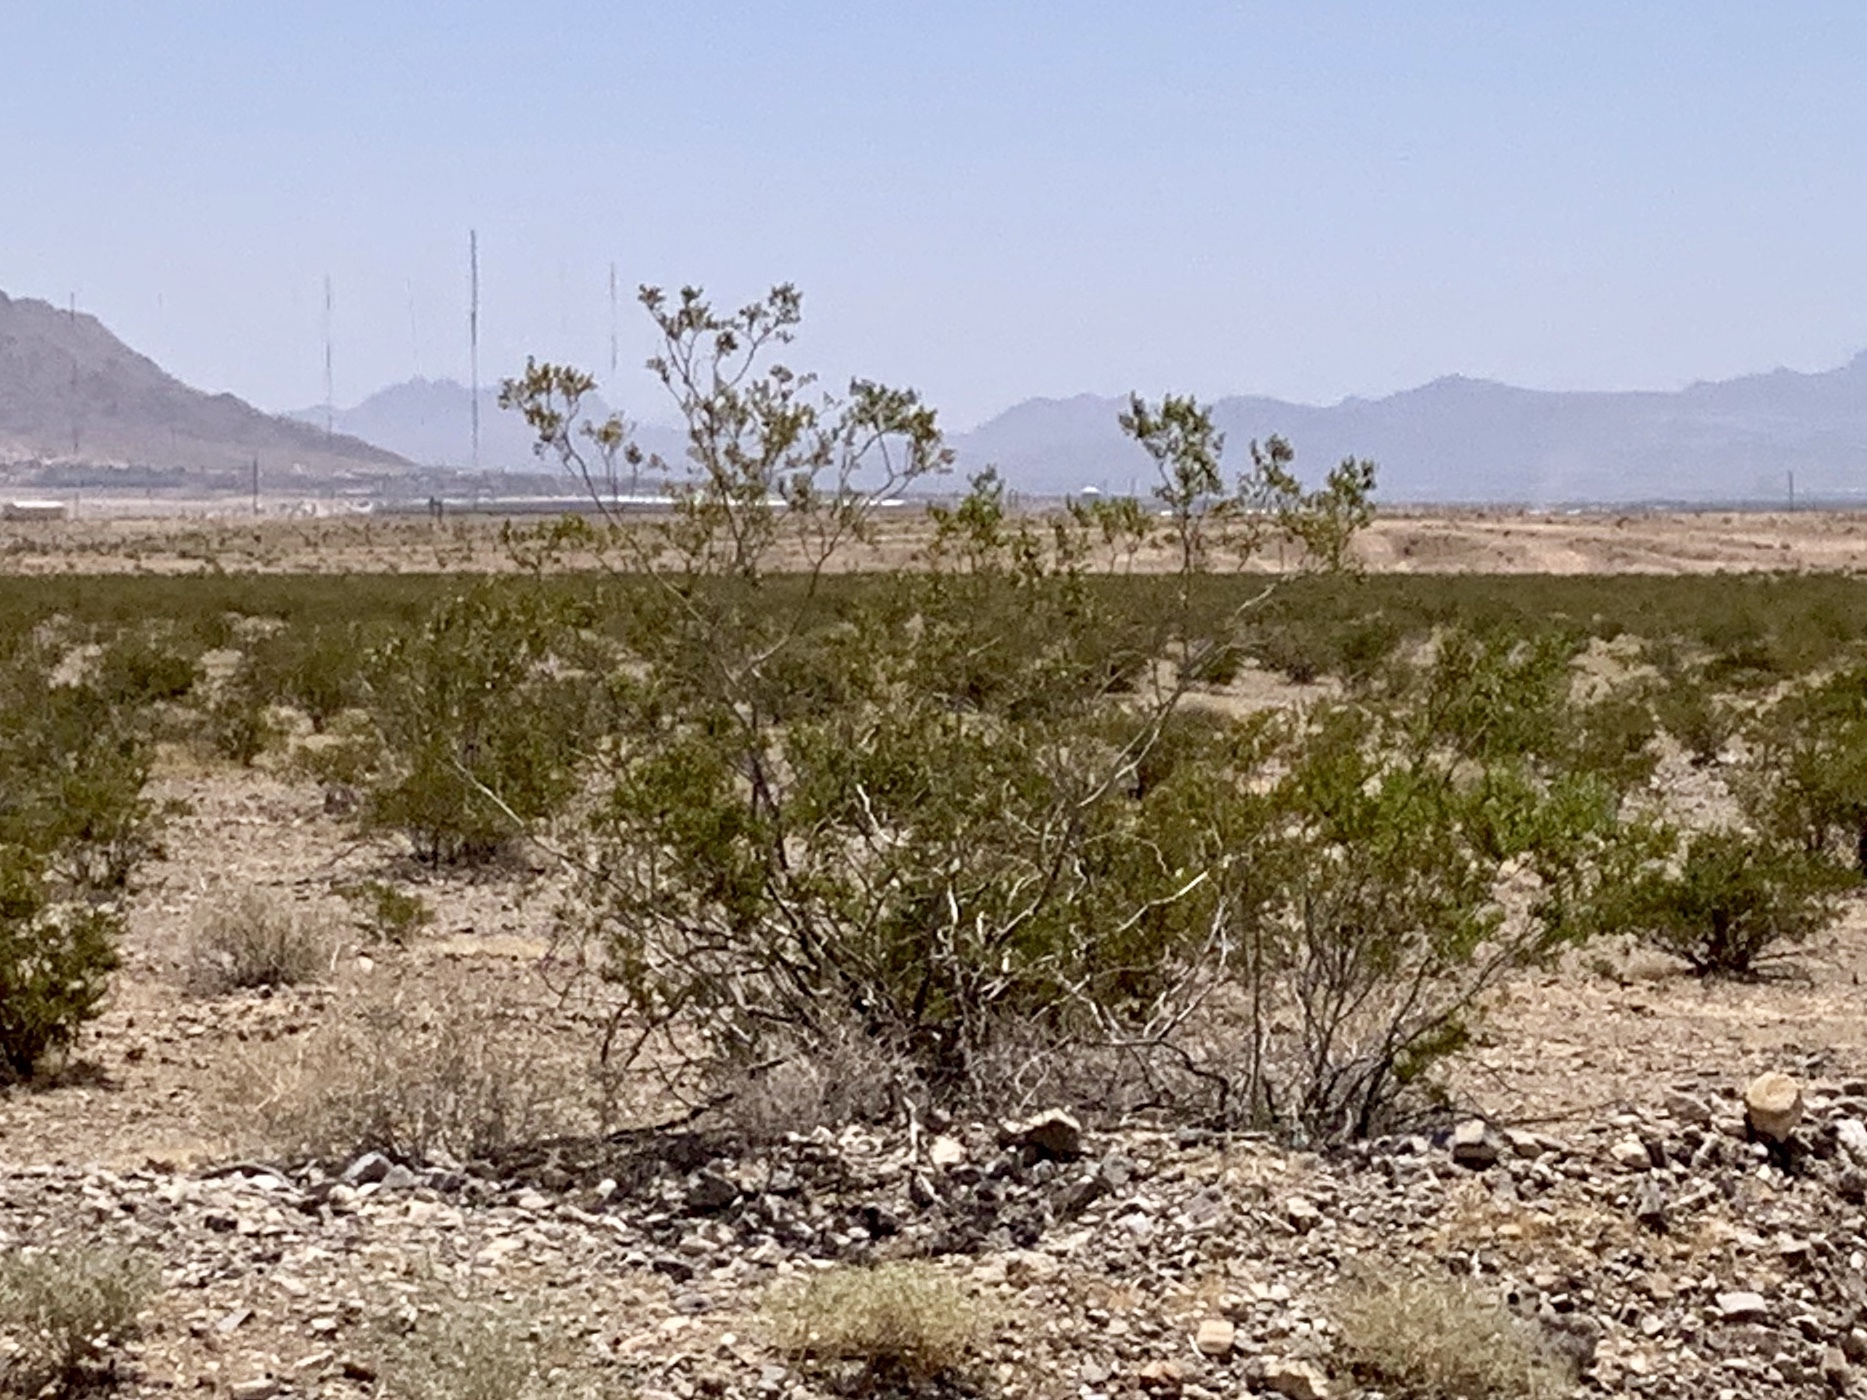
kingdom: Plantae
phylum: Tracheophyta
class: Magnoliopsida
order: Zygophyllales
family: Zygophyllaceae
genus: Larrea
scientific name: Larrea tridentata
